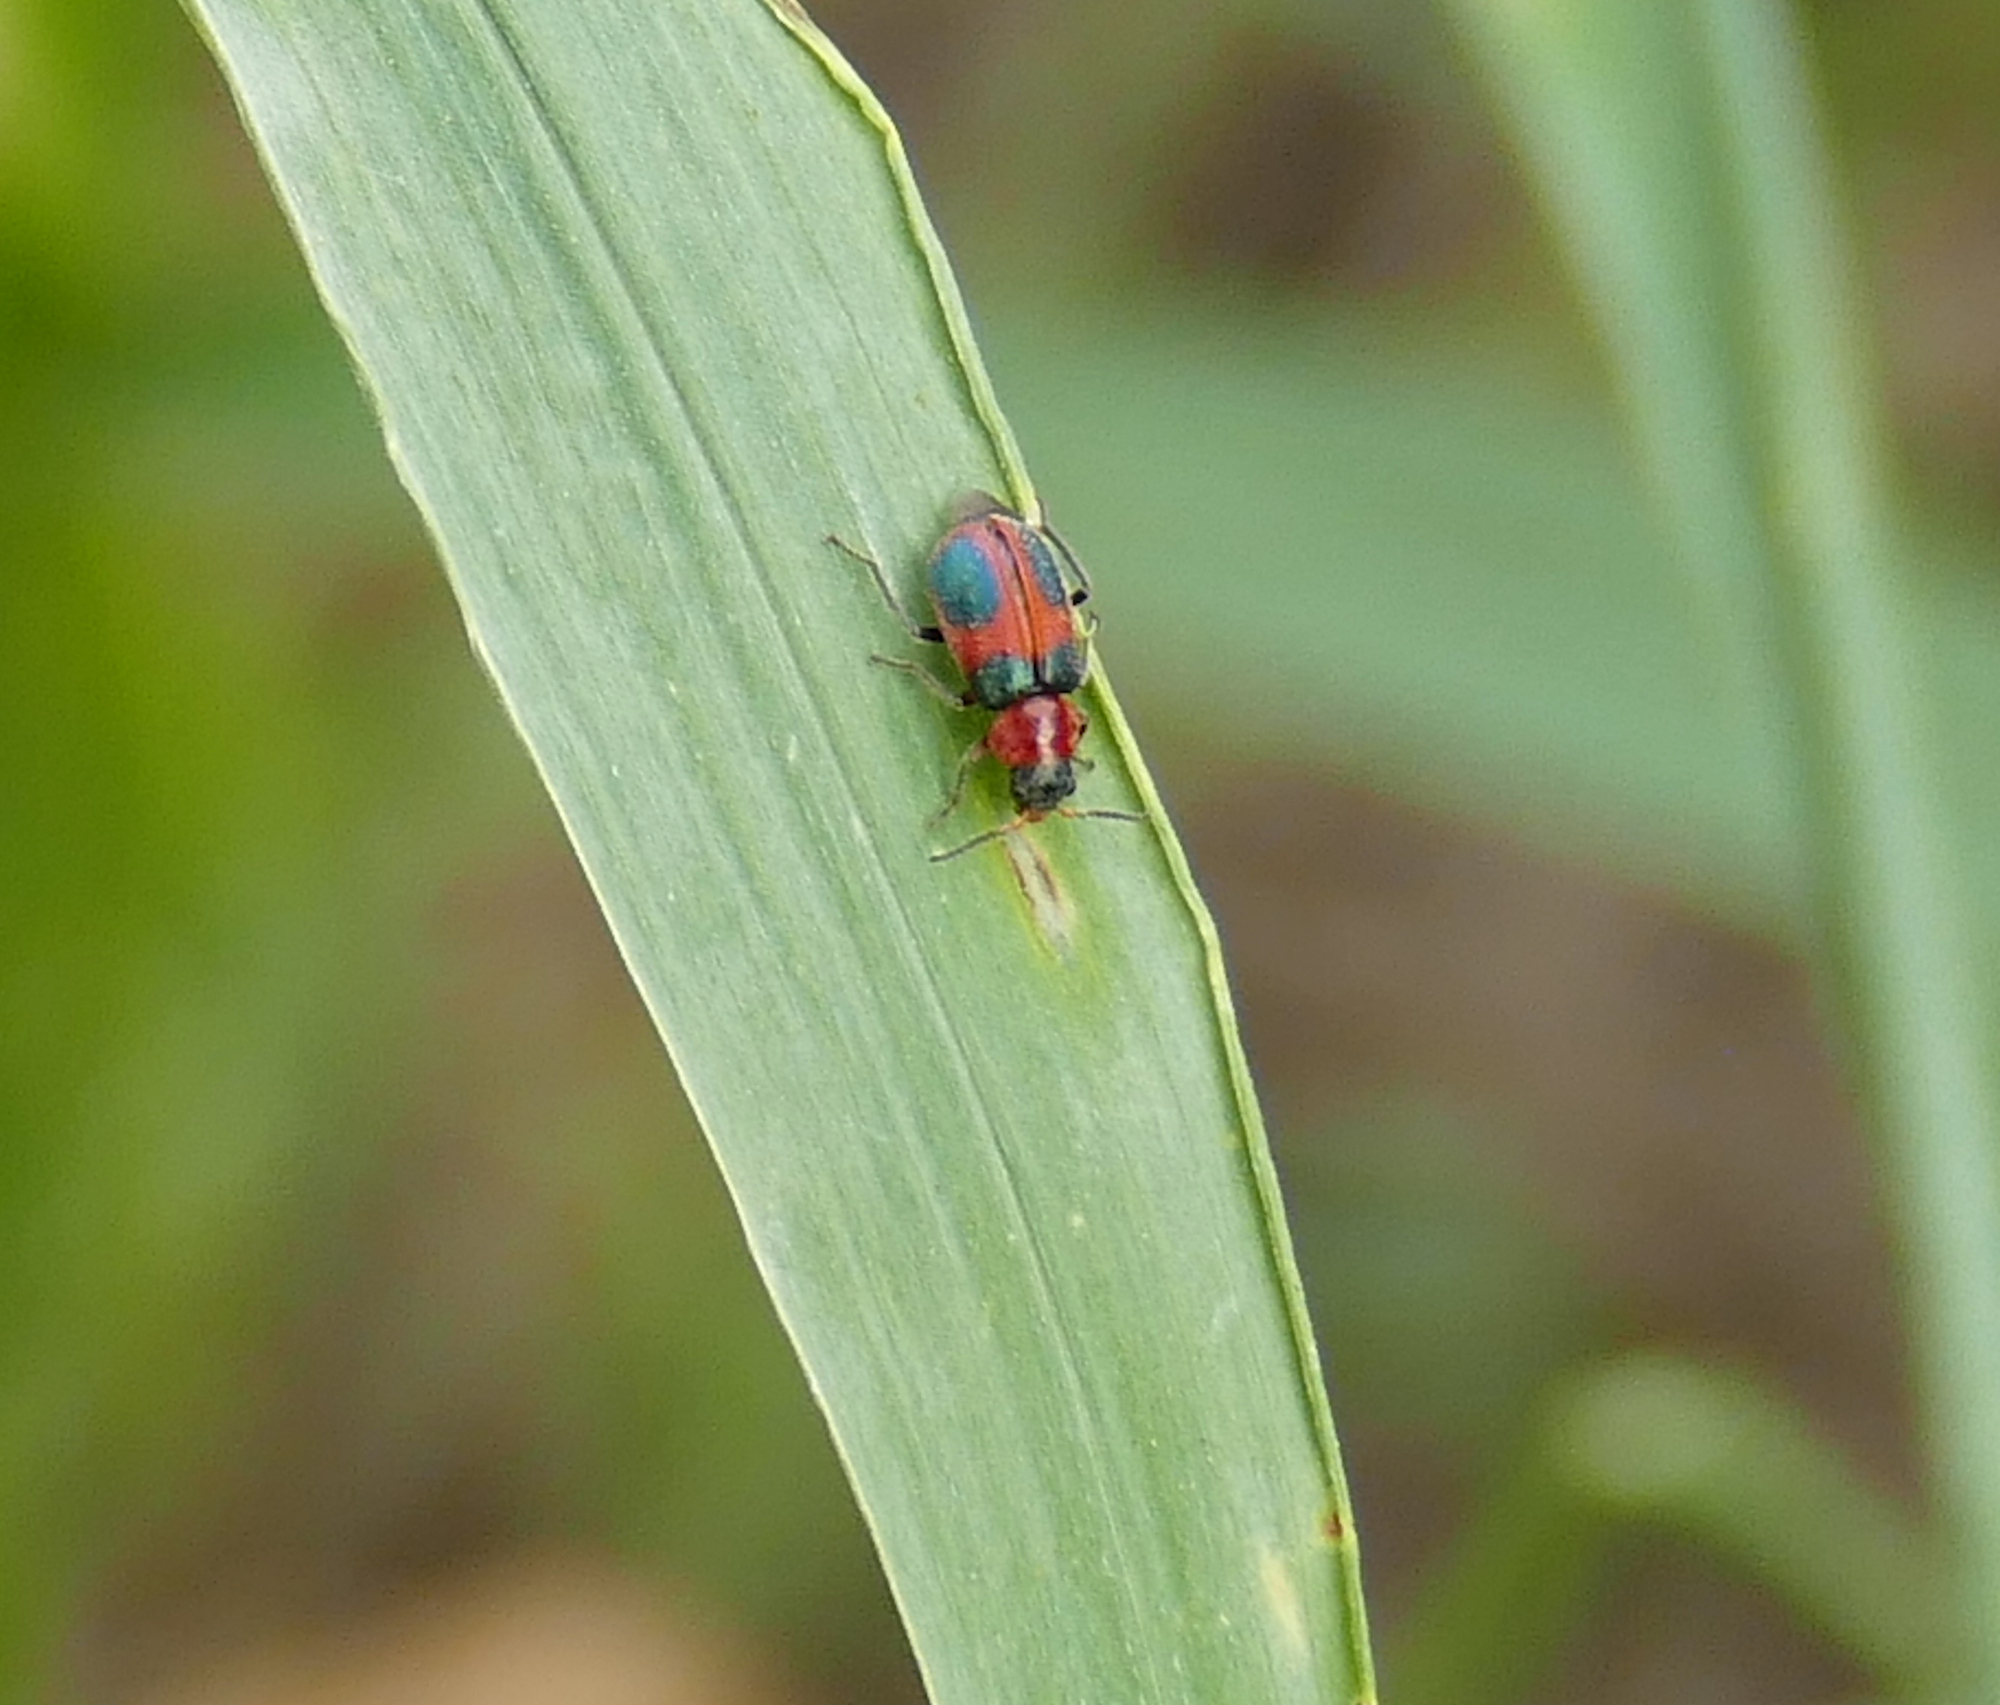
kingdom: Animalia
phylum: Arthropoda
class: Insecta
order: Coleoptera
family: Melyridae
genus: Collops
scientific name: Collops quadrimaculatus
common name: Four-spotted collops
